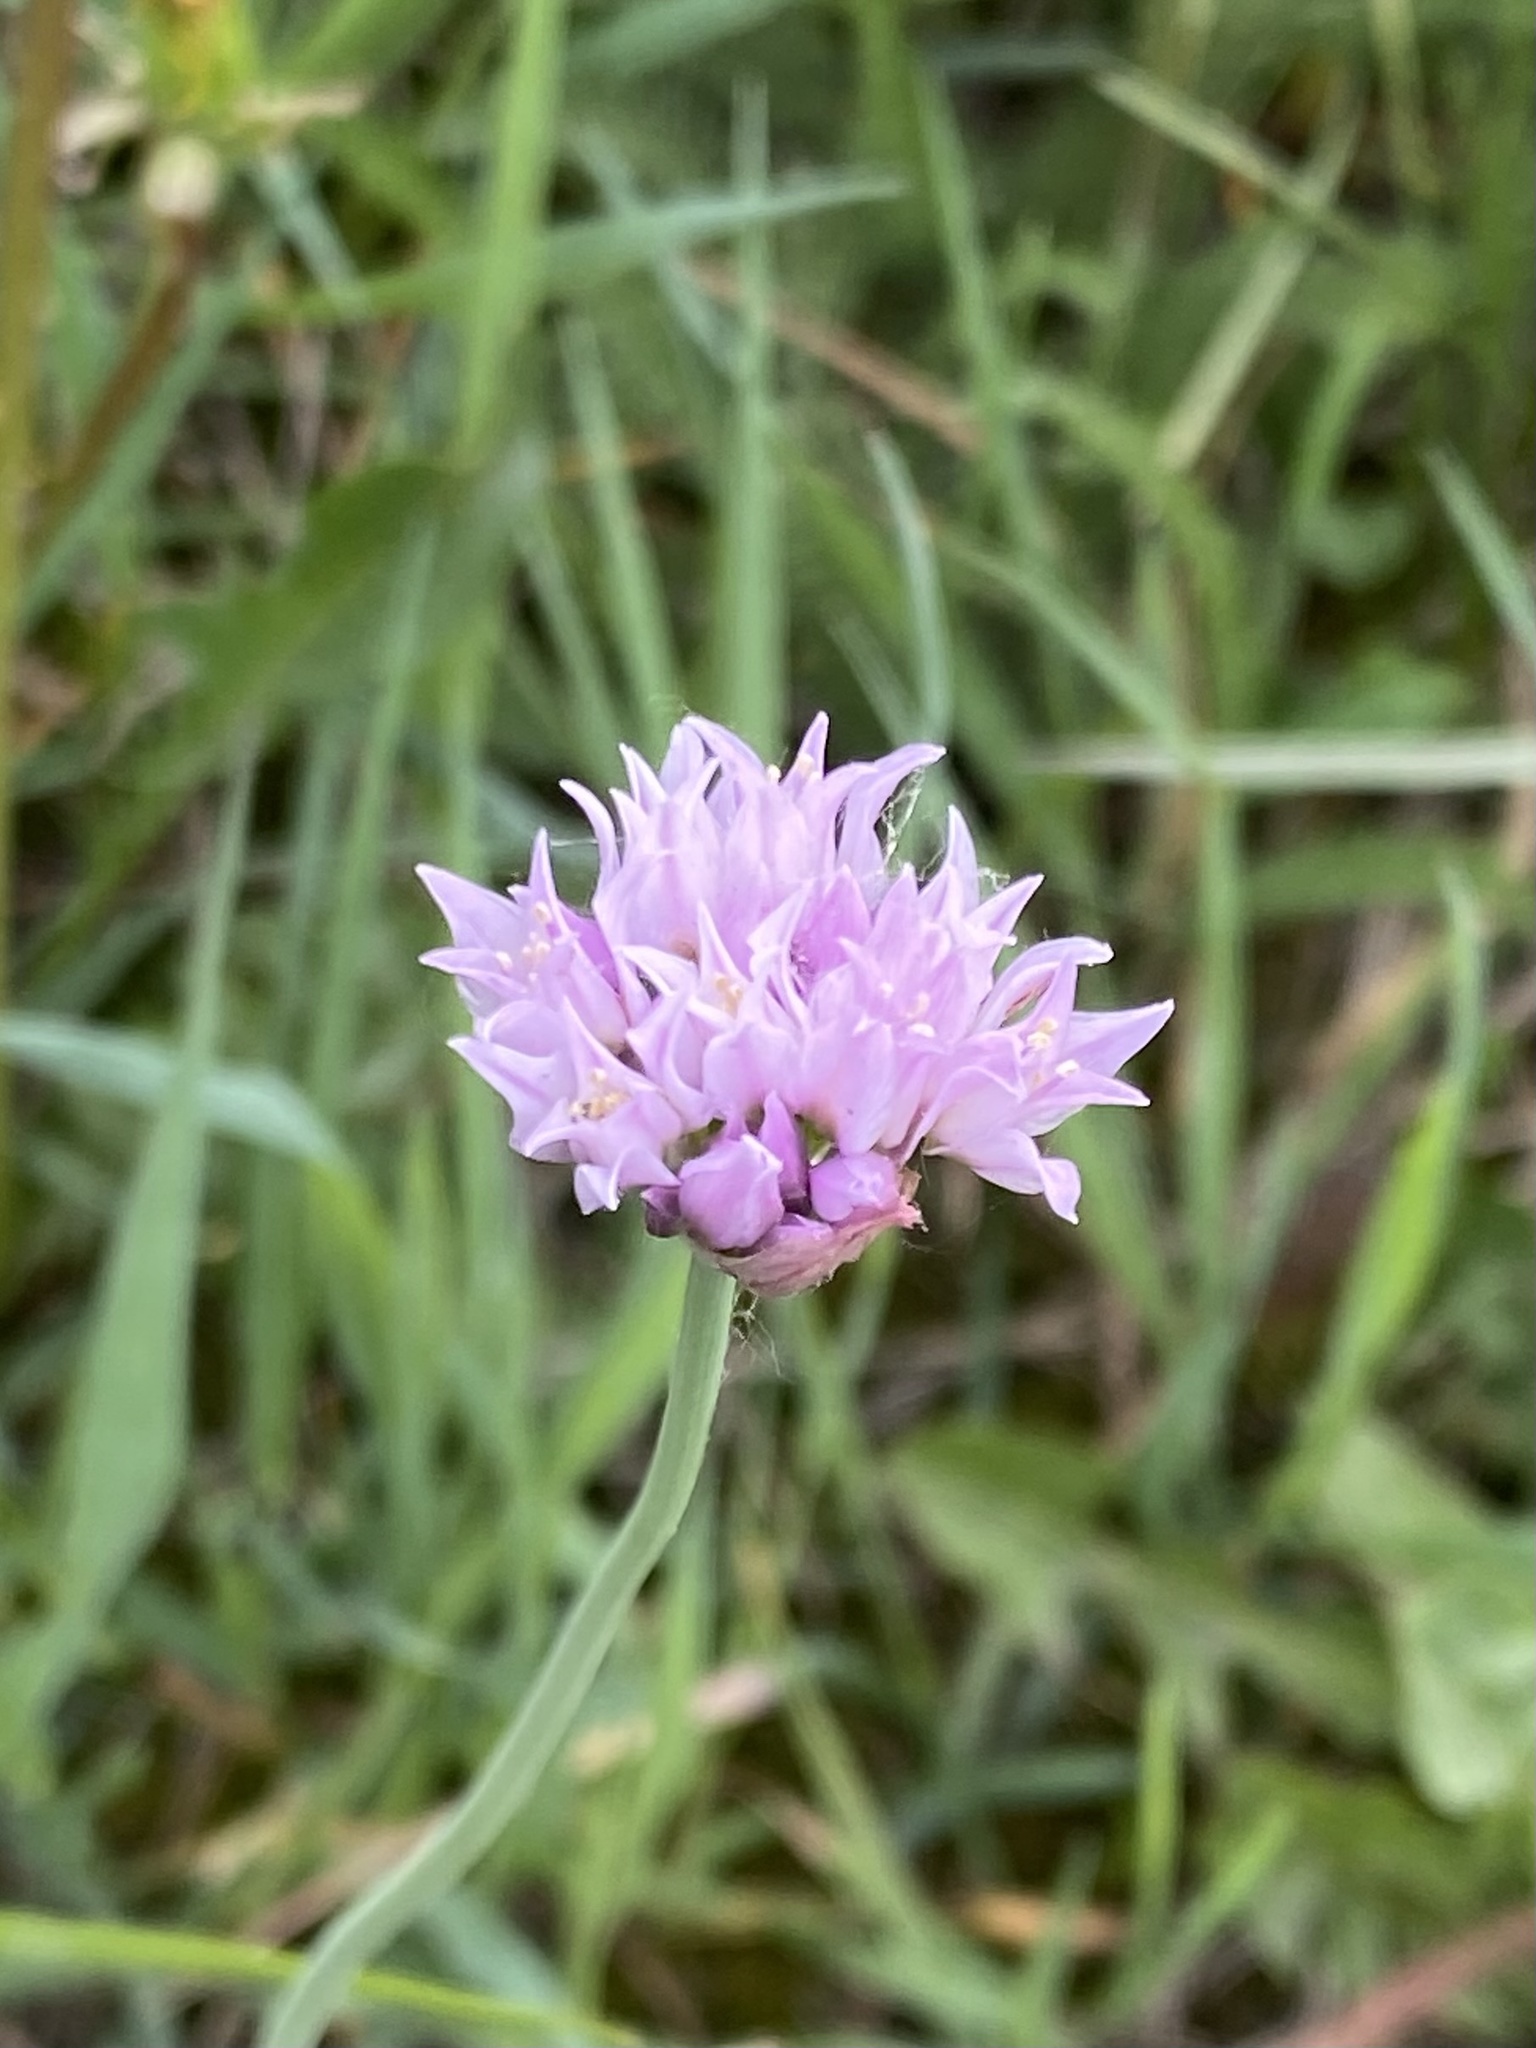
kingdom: Plantae
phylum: Tracheophyta
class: Liliopsida
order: Asparagales
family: Amaryllidaceae
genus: Allium
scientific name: Allium geyeri
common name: Geyer's onion
